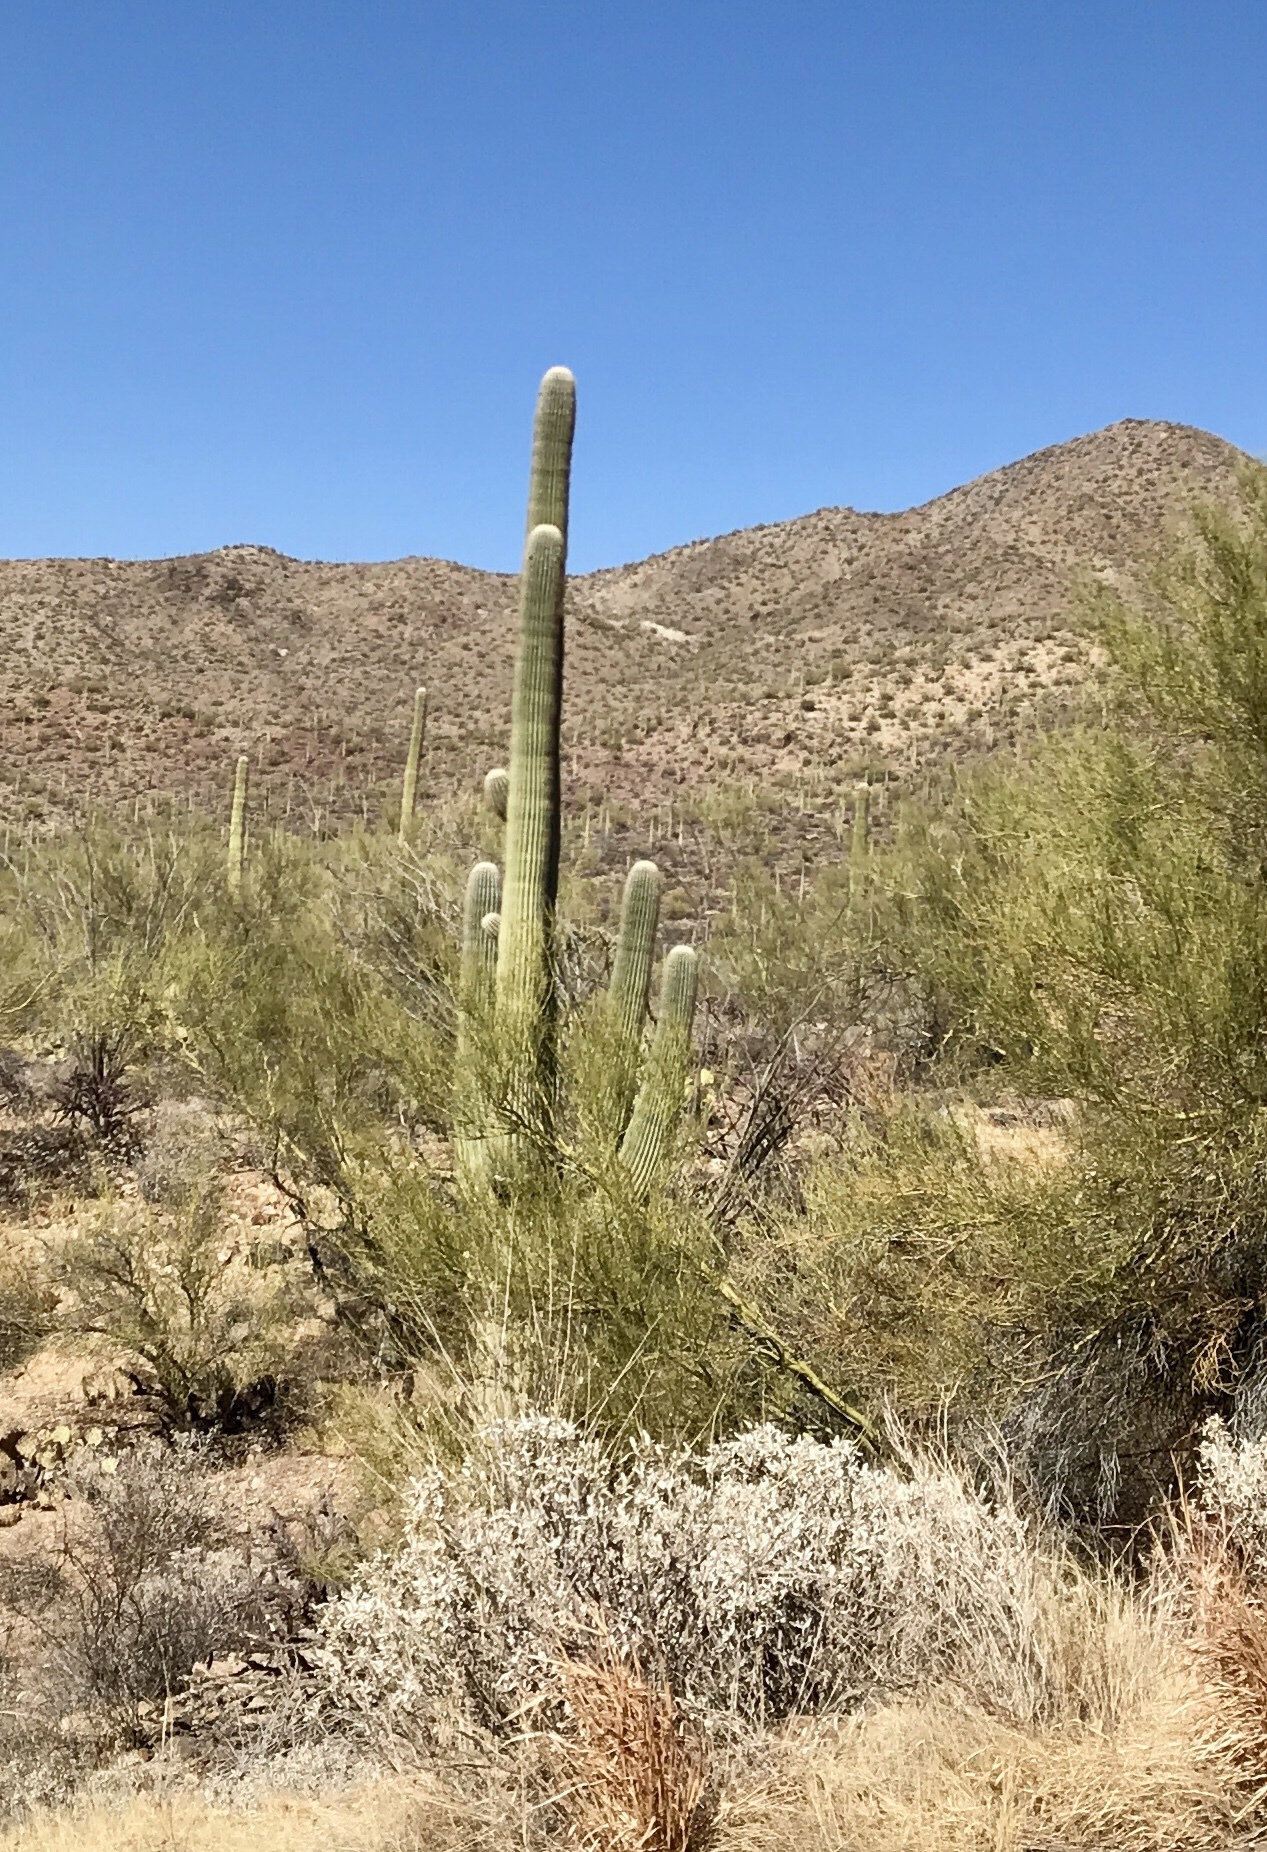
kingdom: Plantae
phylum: Tracheophyta
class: Magnoliopsida
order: Caryophyllales
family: Cactaceae
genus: Carnegiea
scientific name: Carnegiea gigantea
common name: Saguaro
